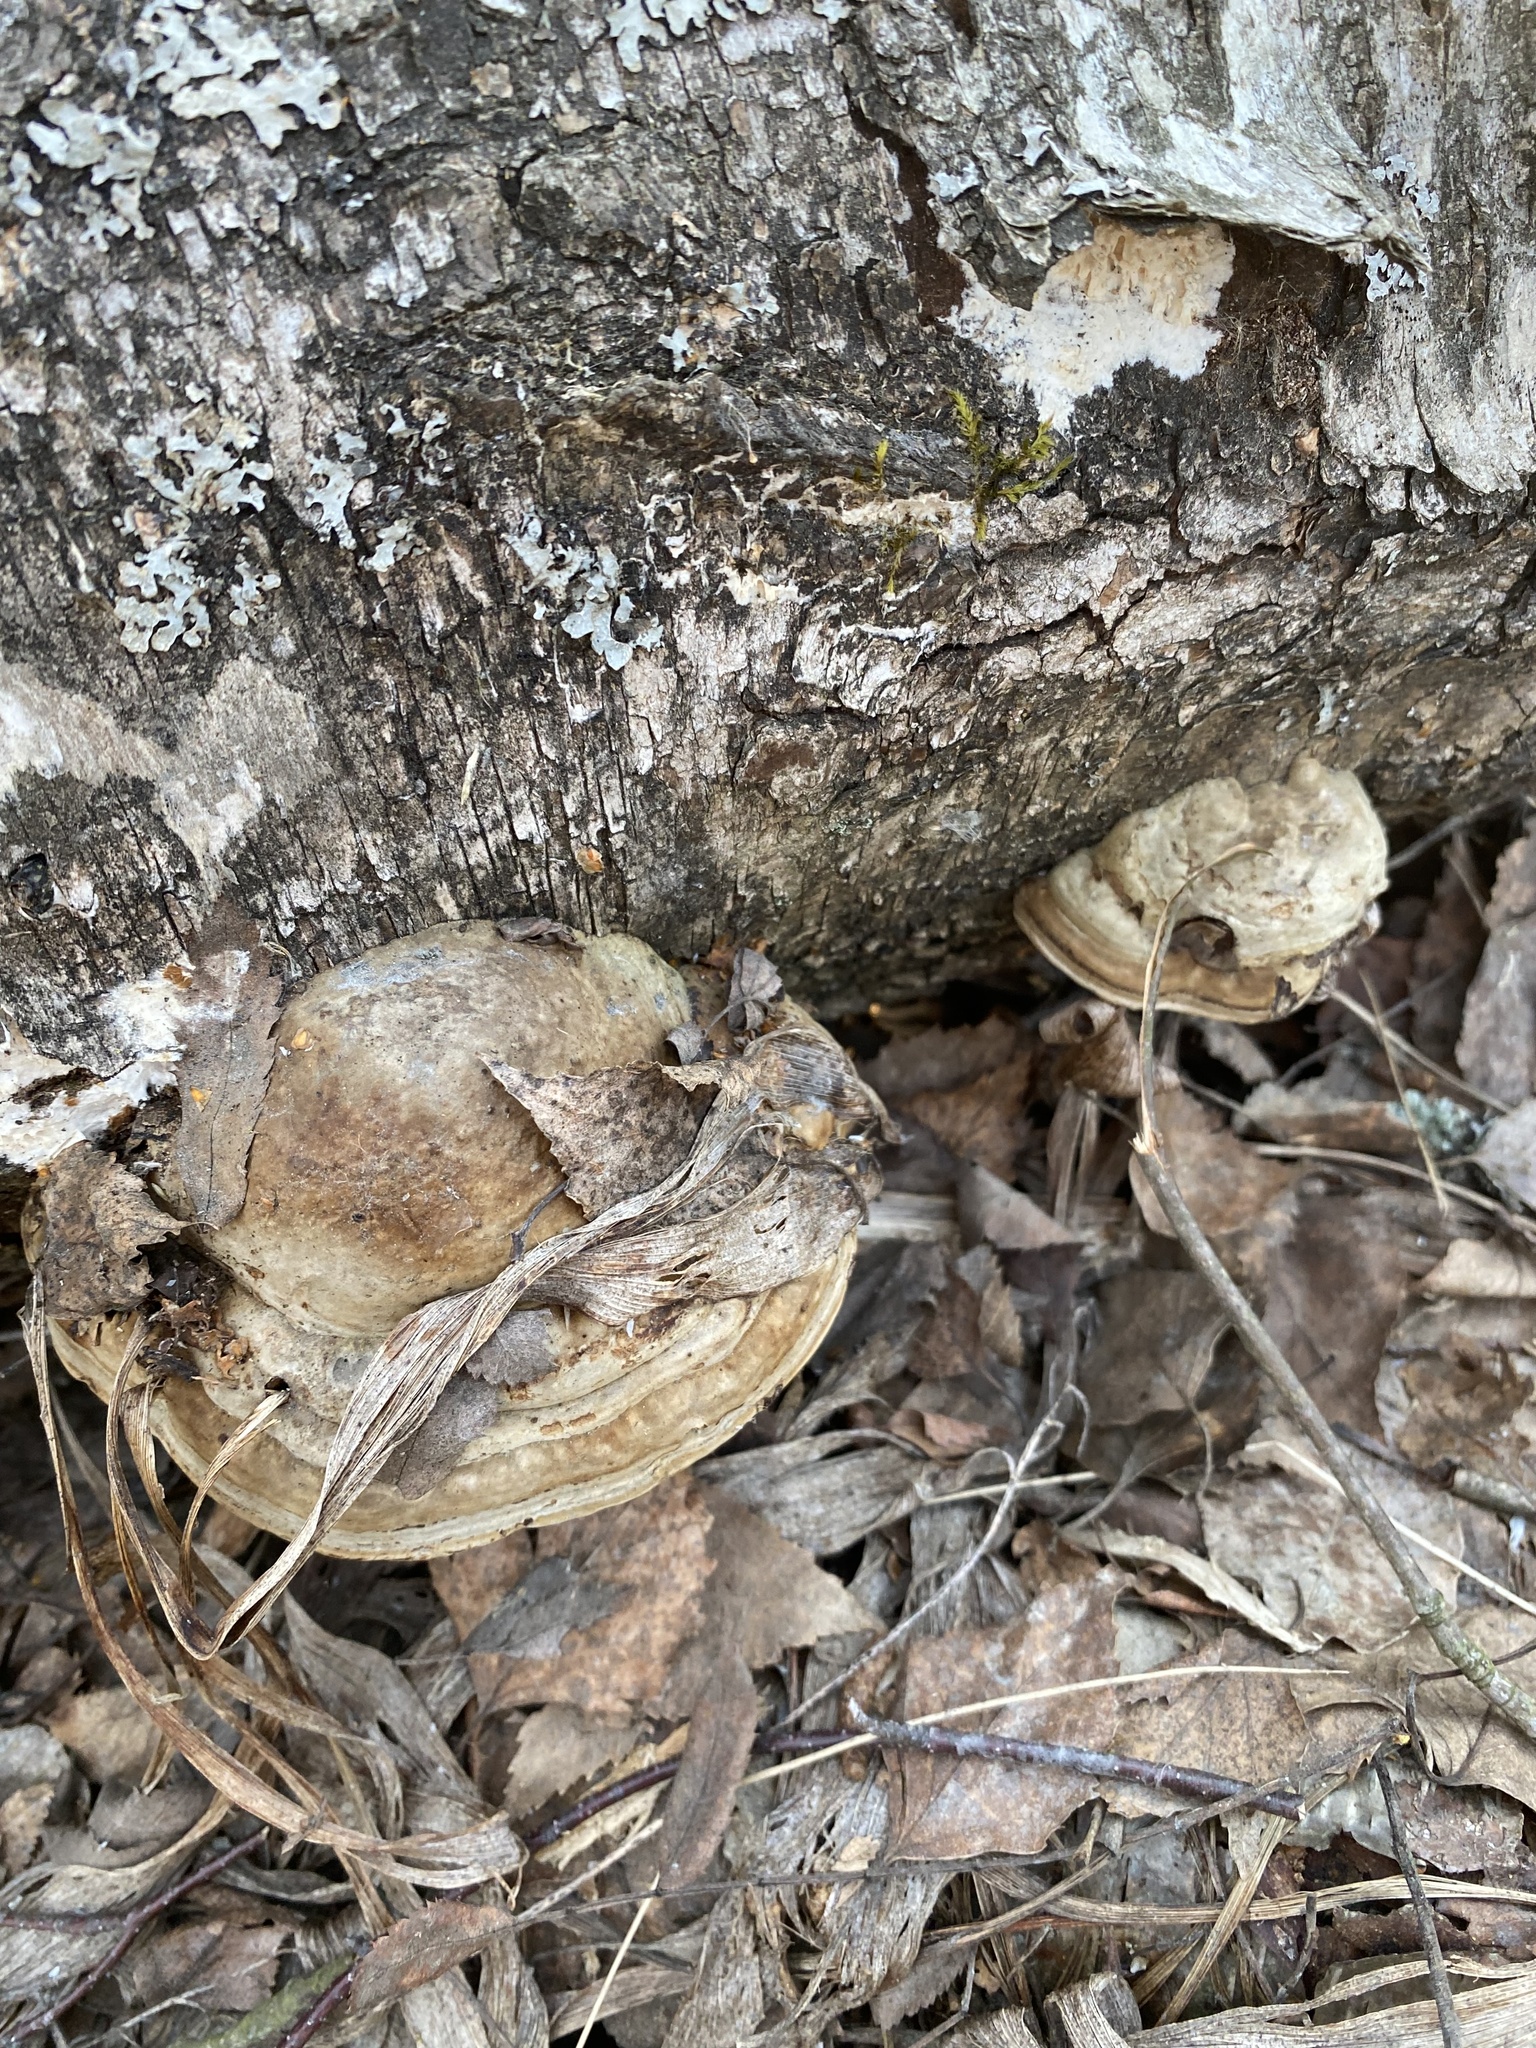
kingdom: Fungi
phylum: Basidiomycota
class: Agaricomycetes
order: Polyporales
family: Polyporaceae
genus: Fomes
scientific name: Fomes fomentarius
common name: Hoof fungus
